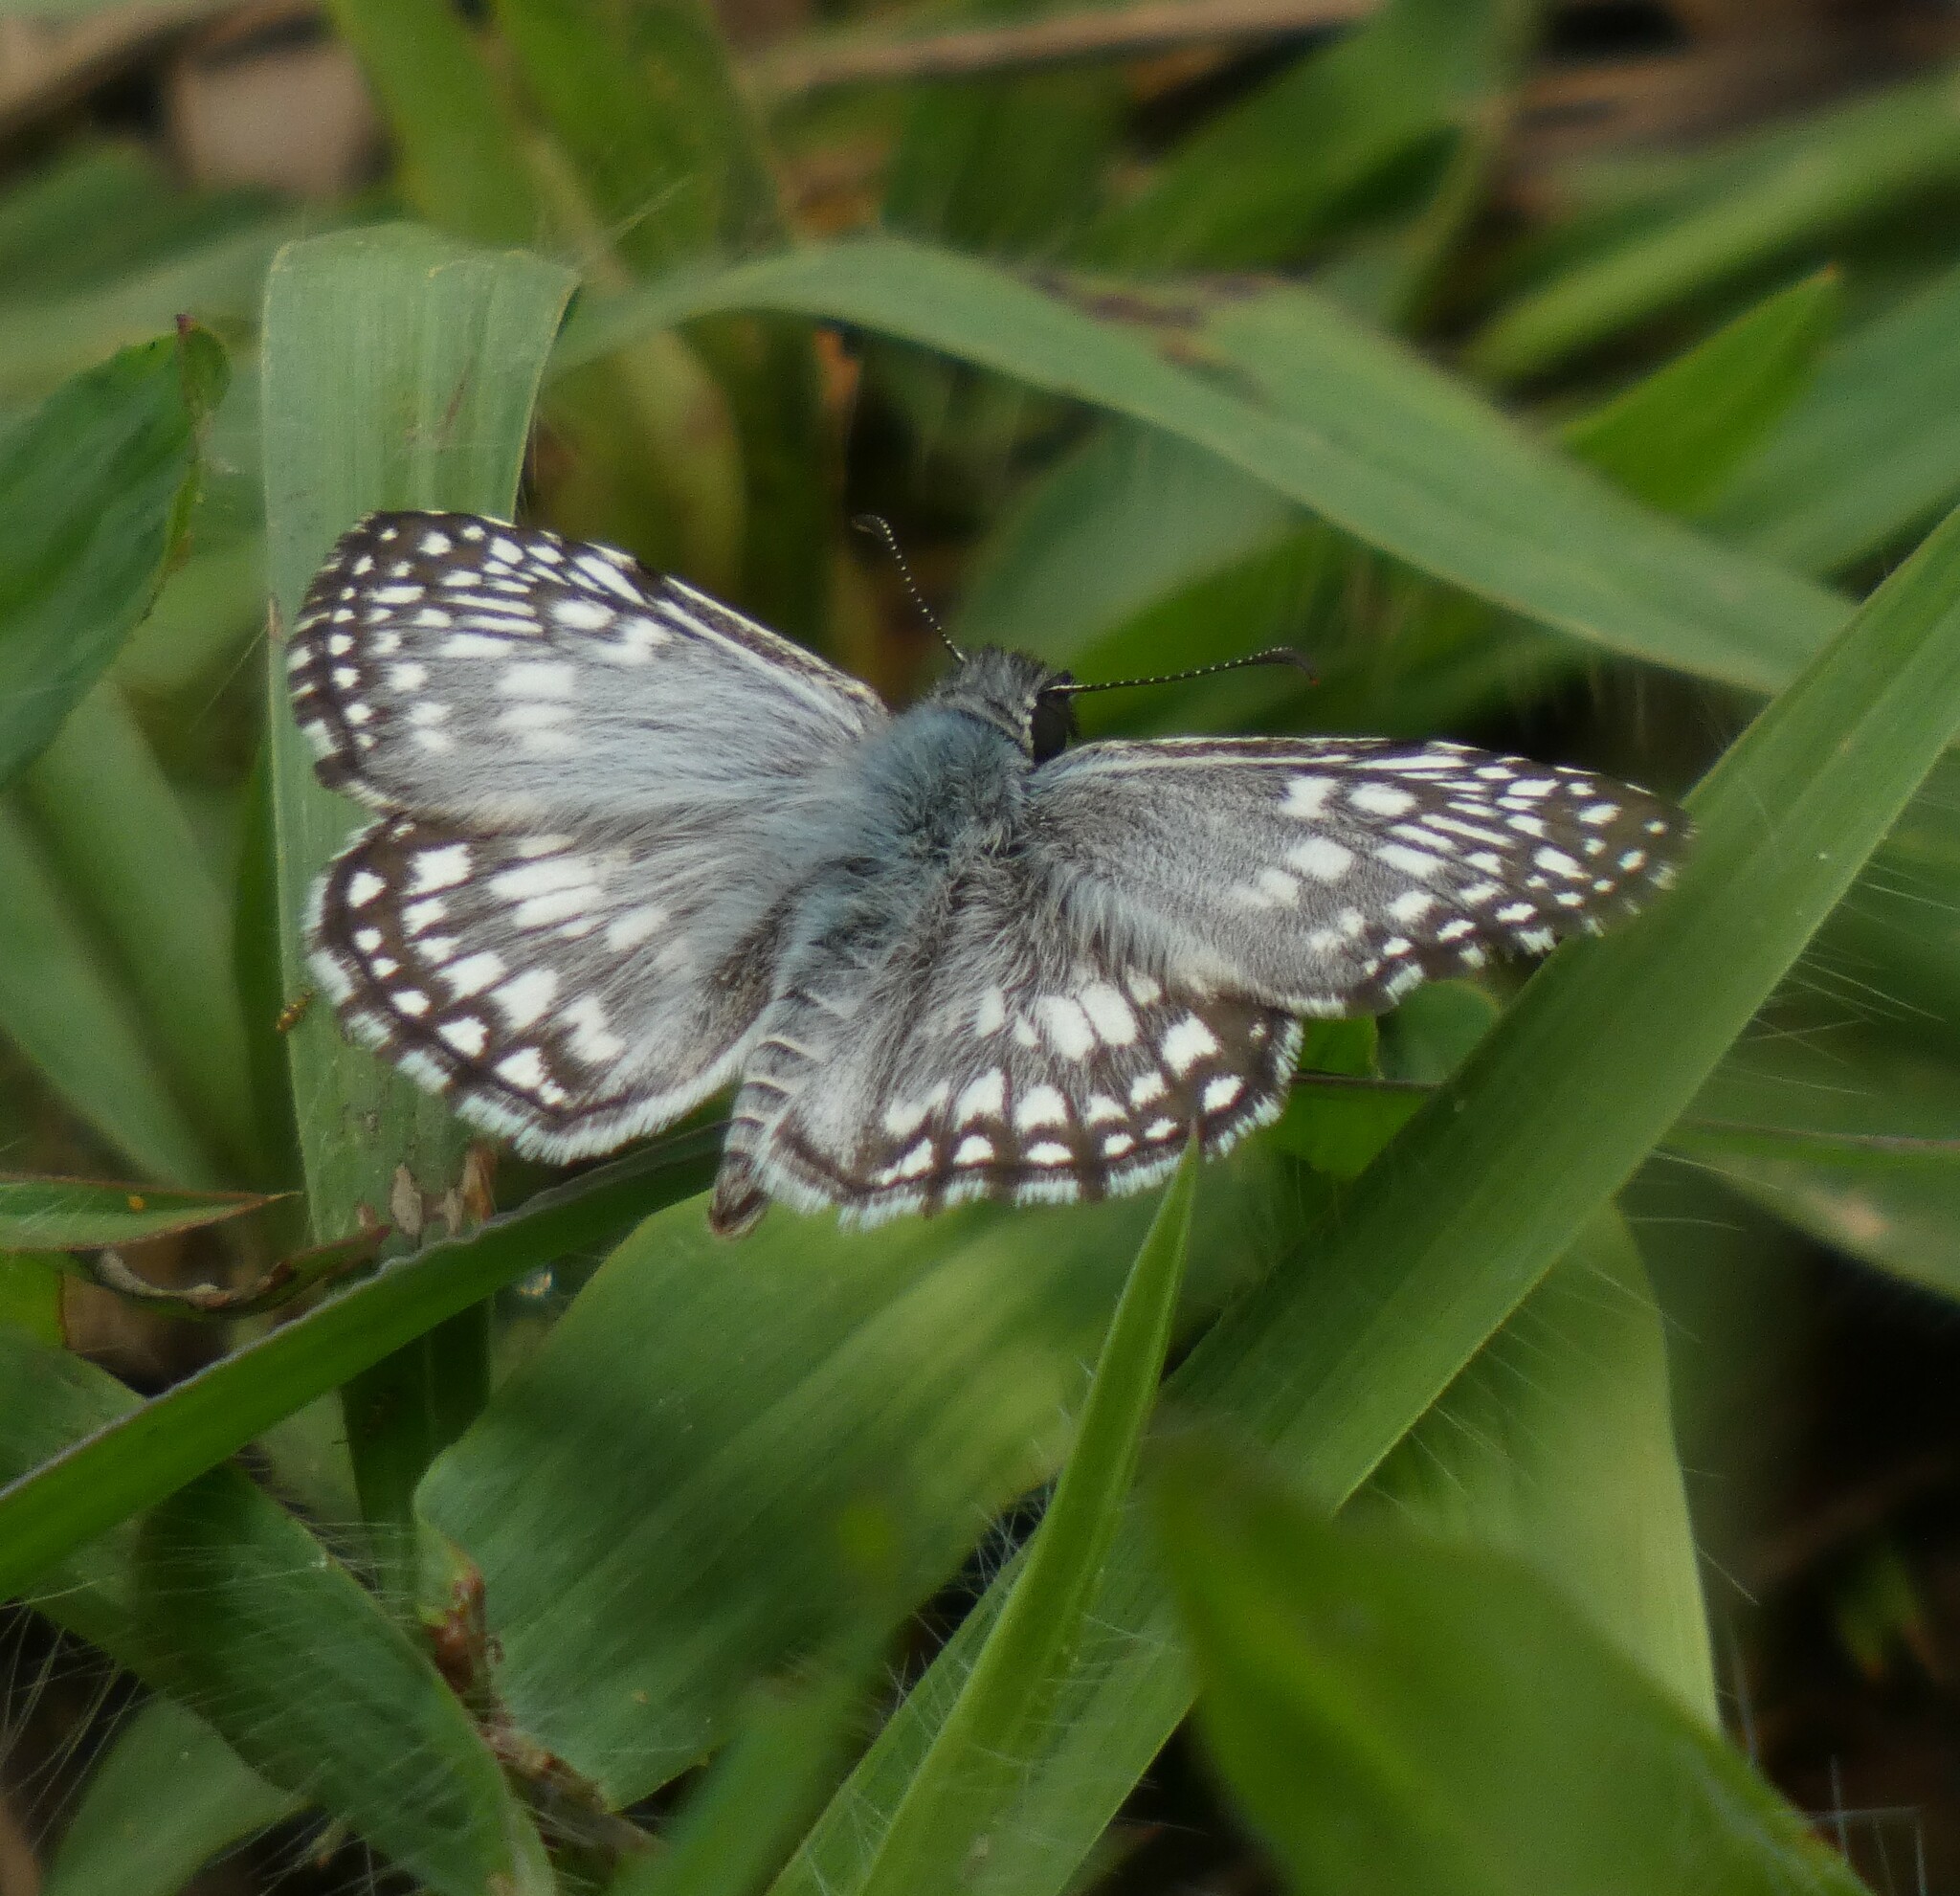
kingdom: Animalia
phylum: Arthropoda
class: Insecta
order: Lepidoptera
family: Hesperiidae
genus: Pyrgus
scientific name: Pyrgus oileus
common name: Tropical checkered-skipper
